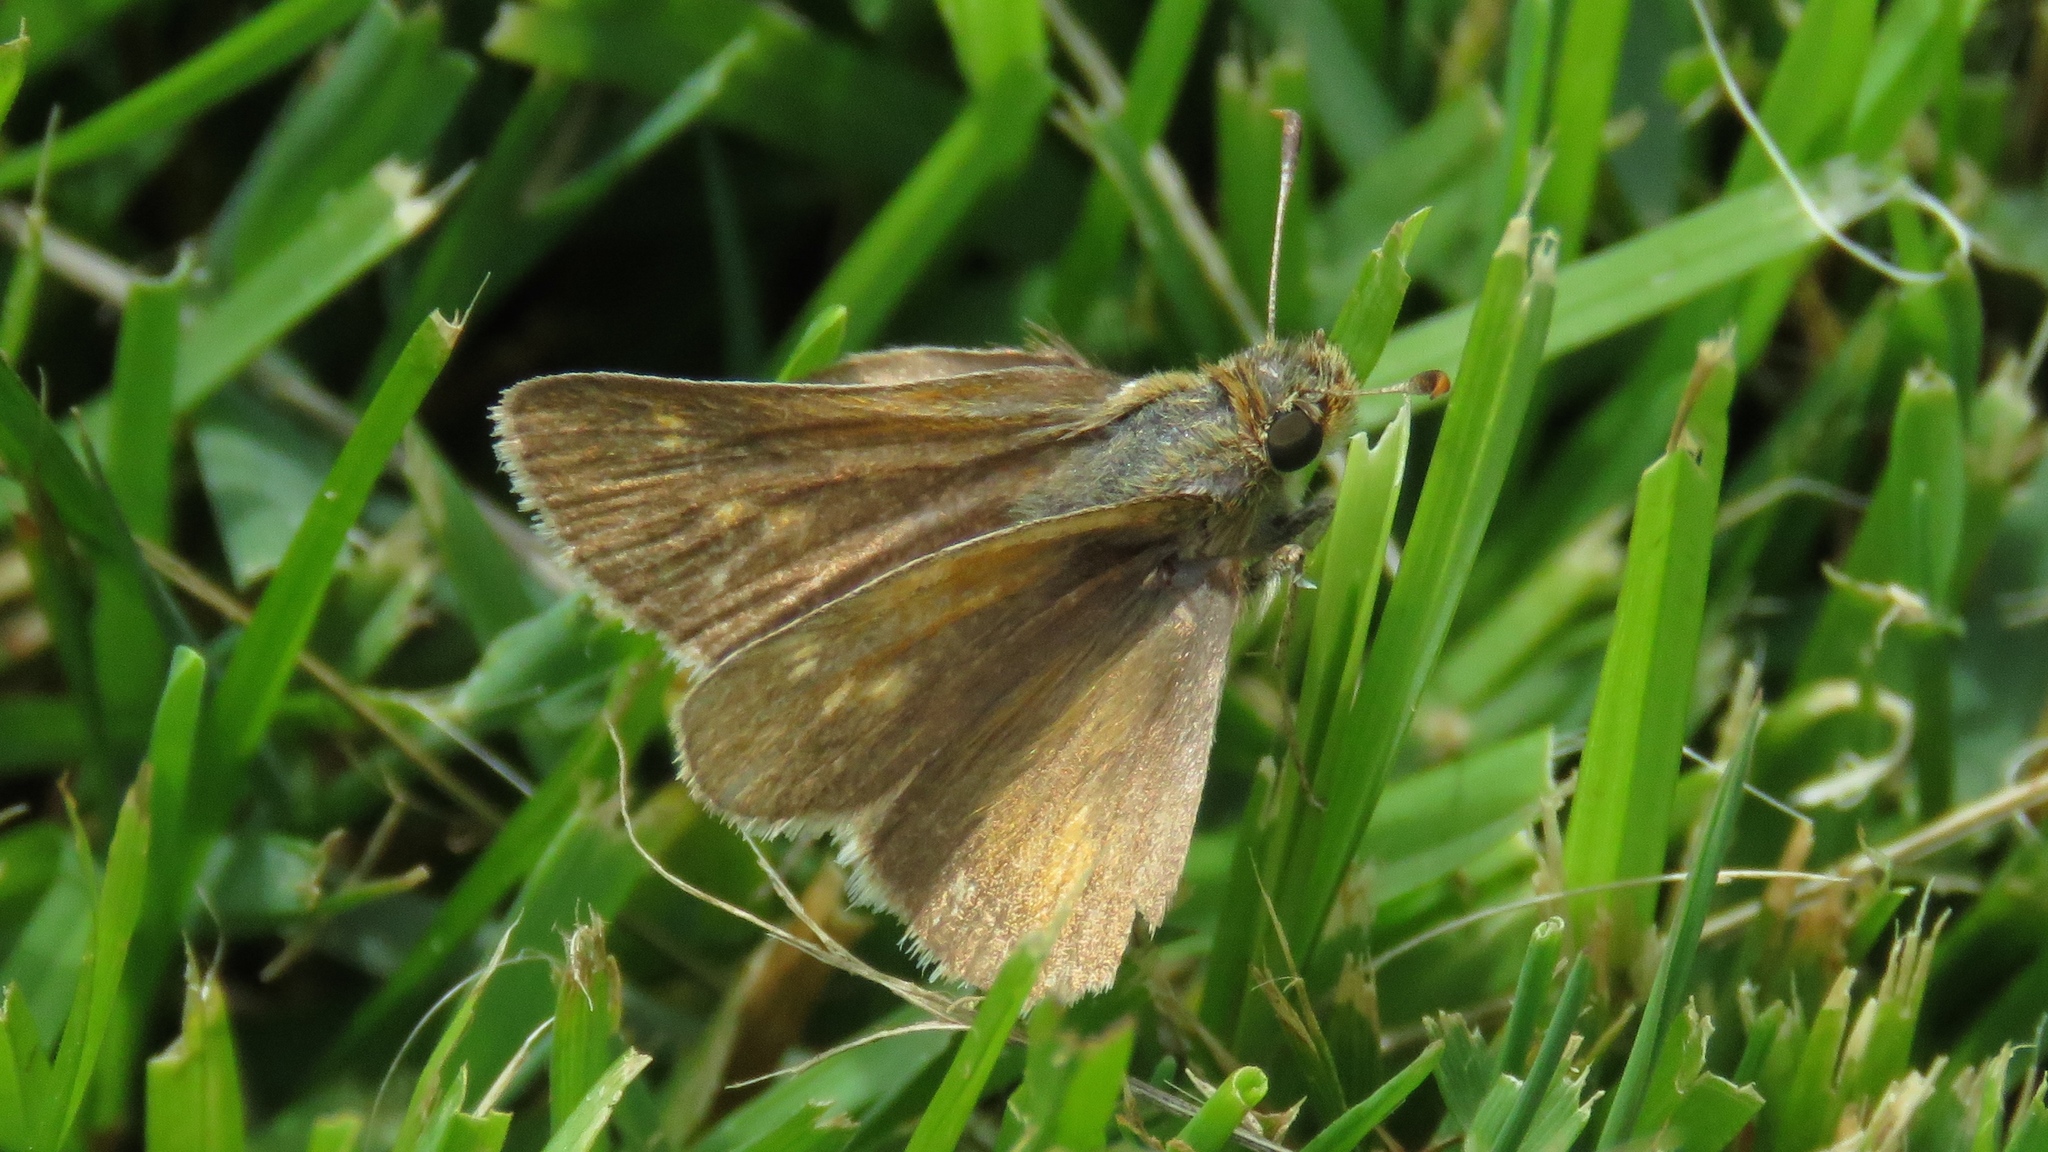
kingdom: Animalia
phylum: Arthropoda
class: Insecta
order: Lepidoptera
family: Hesperiidae
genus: Polites
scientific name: Polites coras
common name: Peck's skipper
